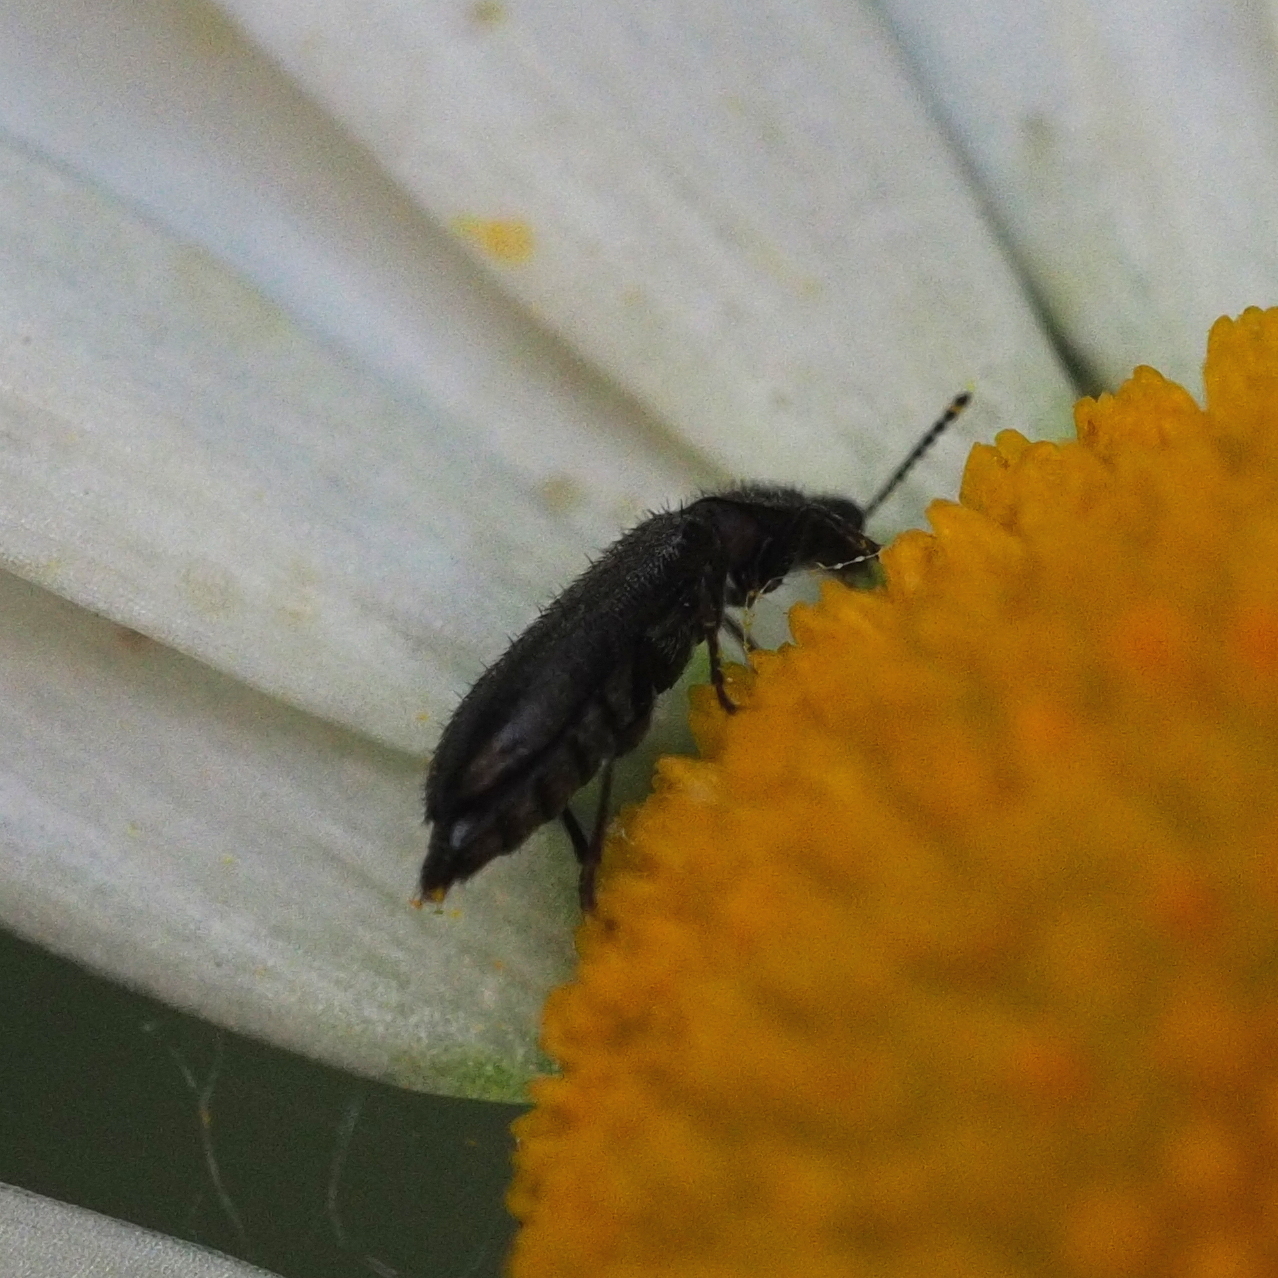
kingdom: Animalia
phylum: Arthropoda
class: Insecta
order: Coleoptera
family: Melyridae
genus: Dasytes
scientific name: Dasytes
